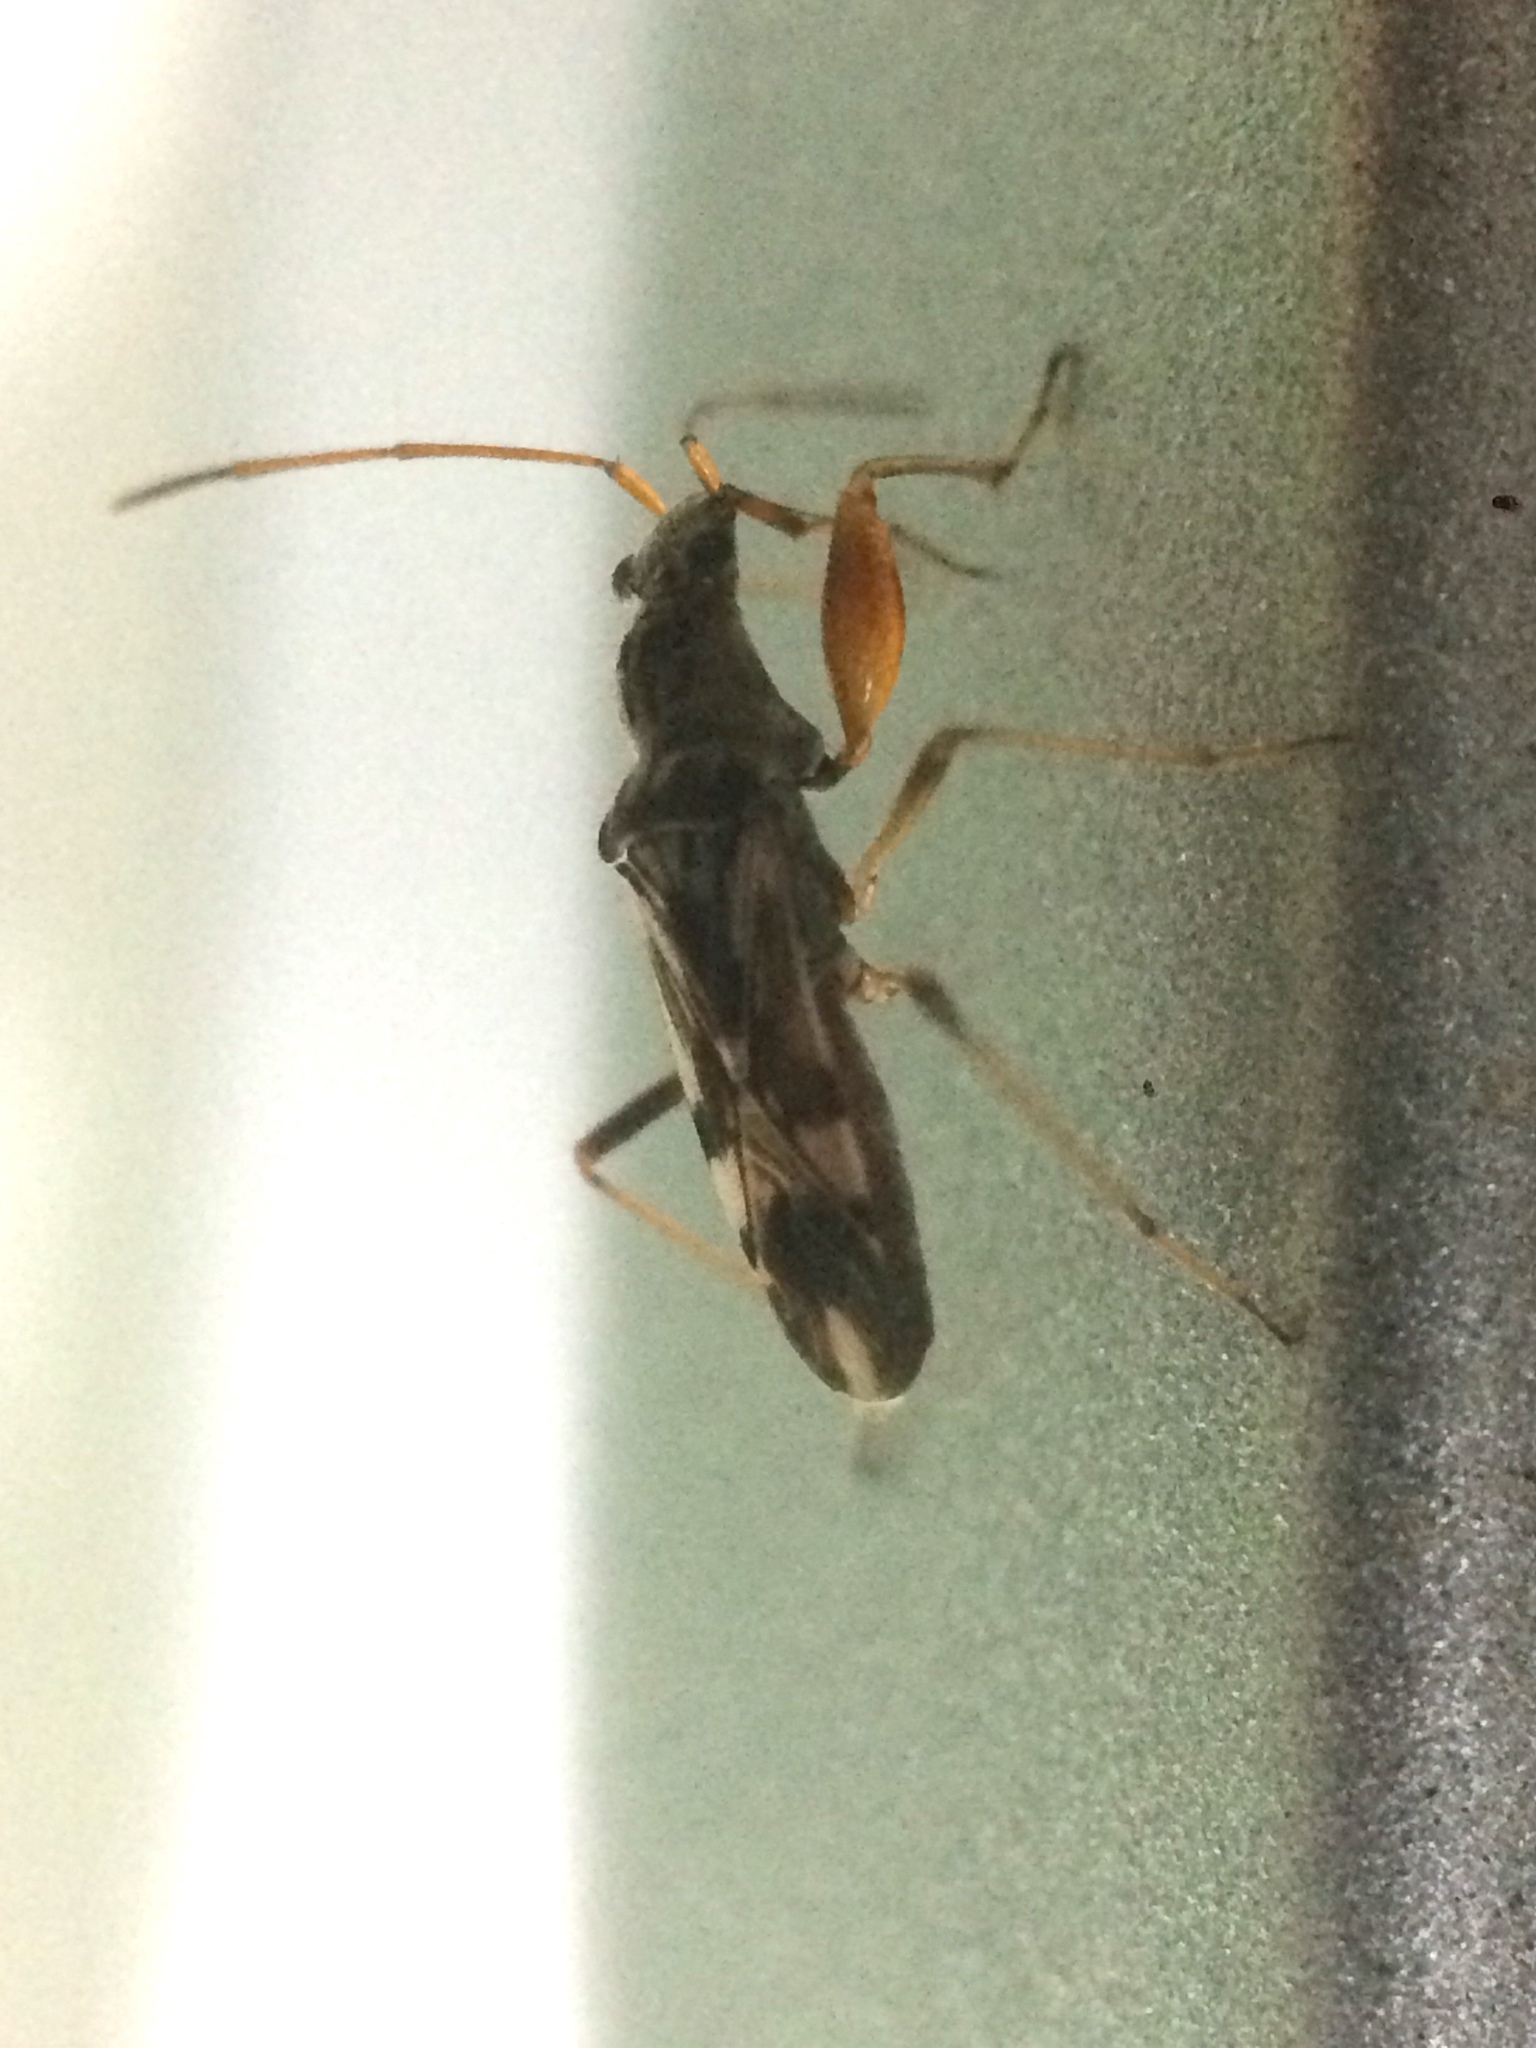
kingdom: Animalia
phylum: Arthropoda
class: Insecta
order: Hemiptera
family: Rhyparochromidae
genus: Neopamera
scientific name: Neopamera bilobata
